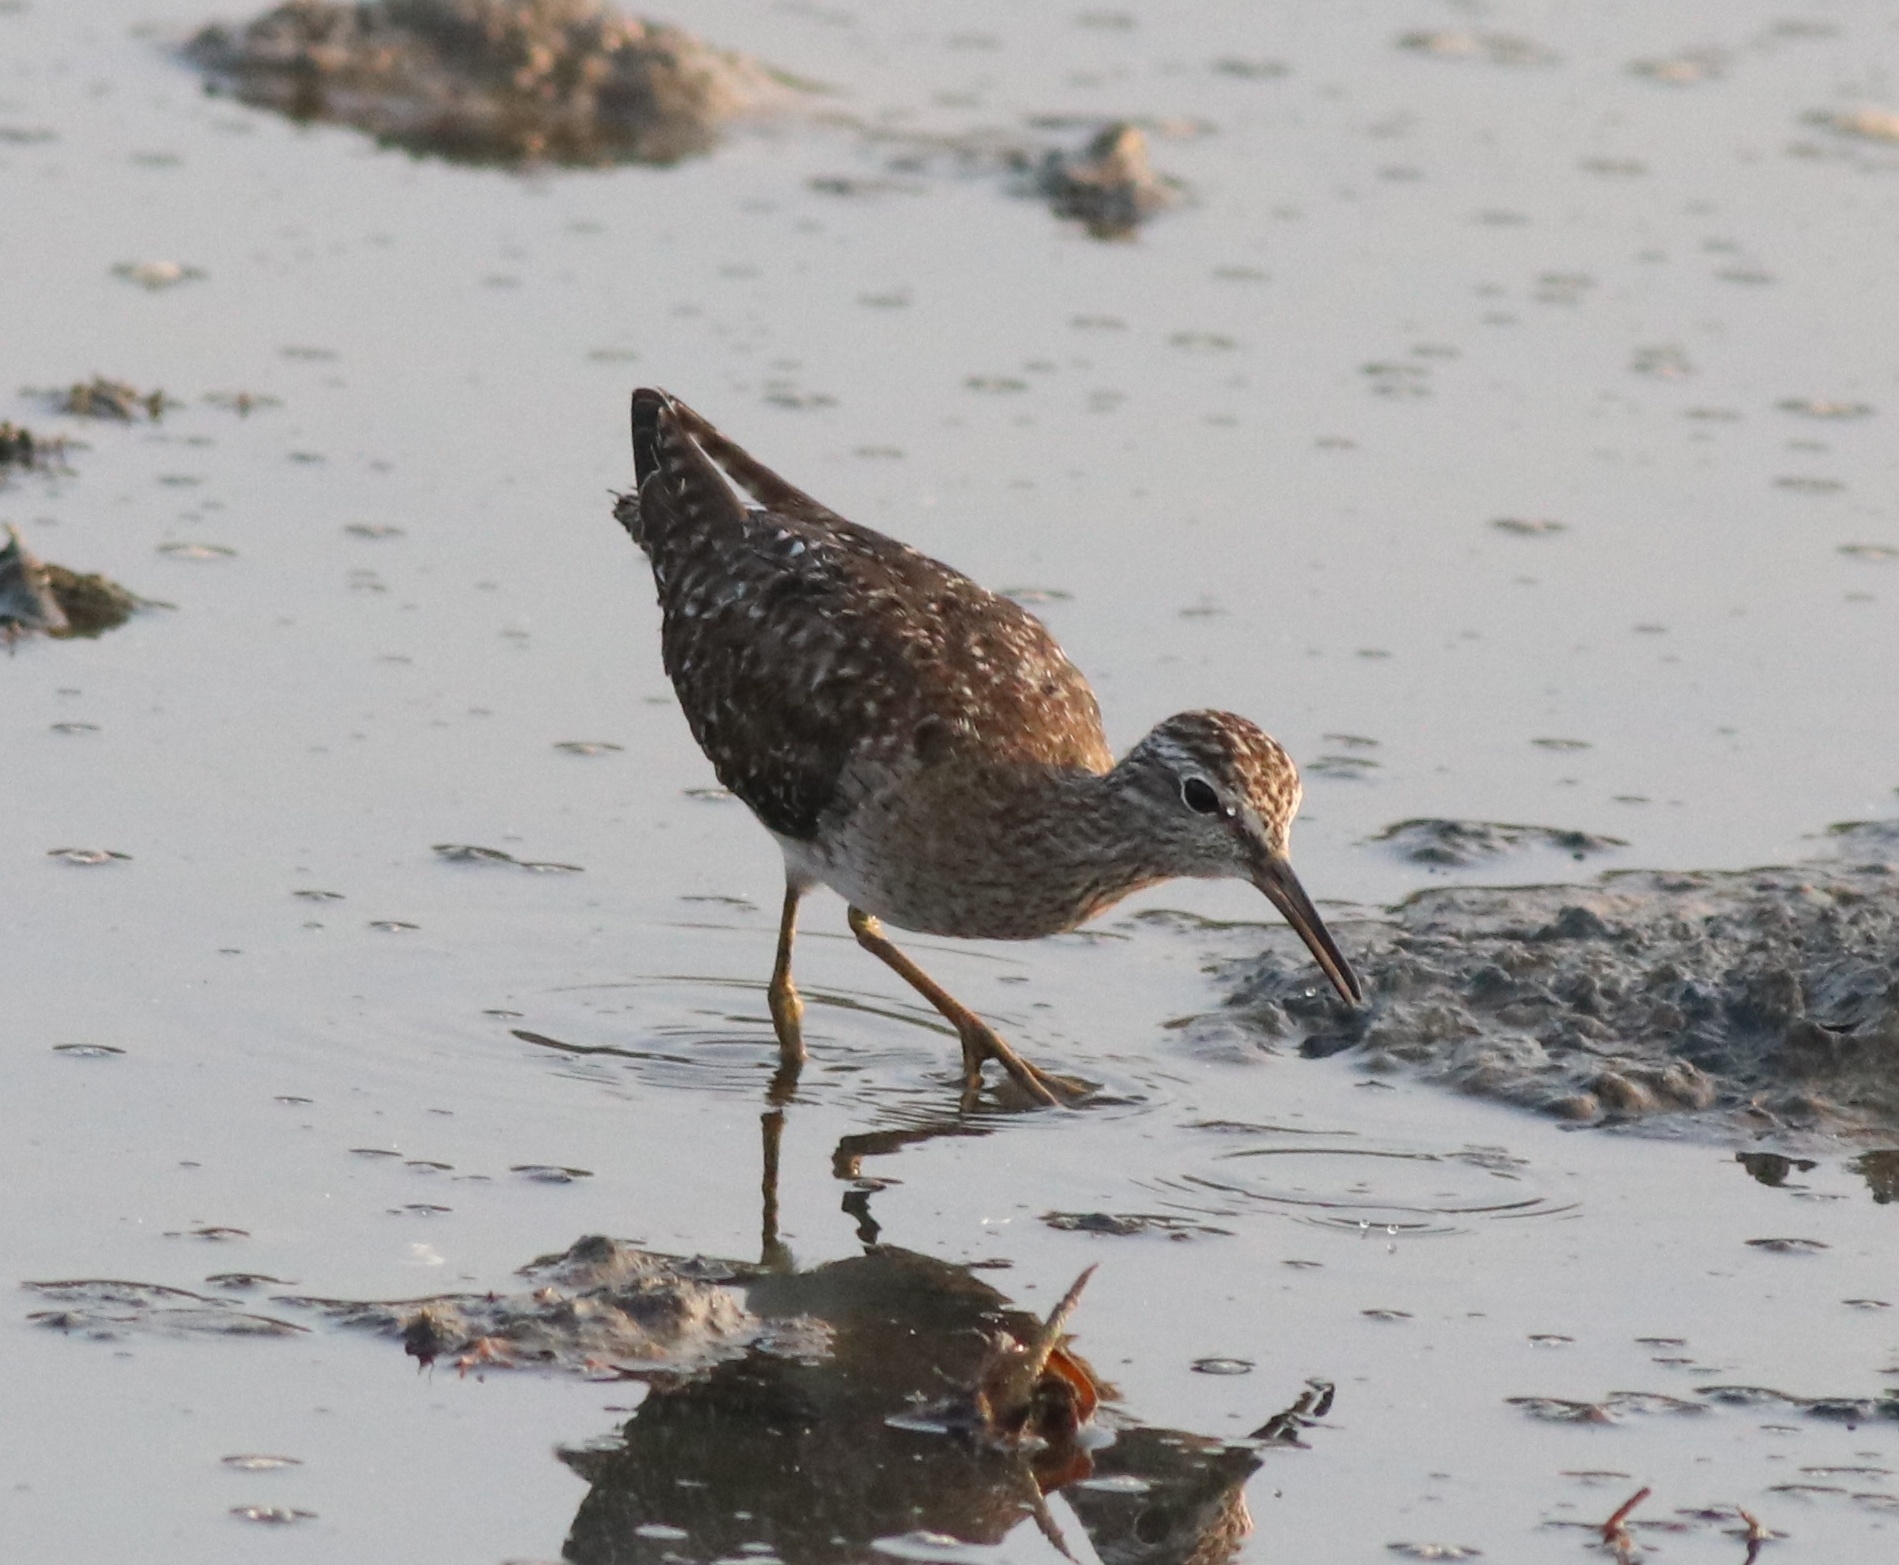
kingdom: Animalia
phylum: Chordata
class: Aves
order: Charadriiformes
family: Scolopacidae
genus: Tringa
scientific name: Tringa glareola
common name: Wood sandpiper
